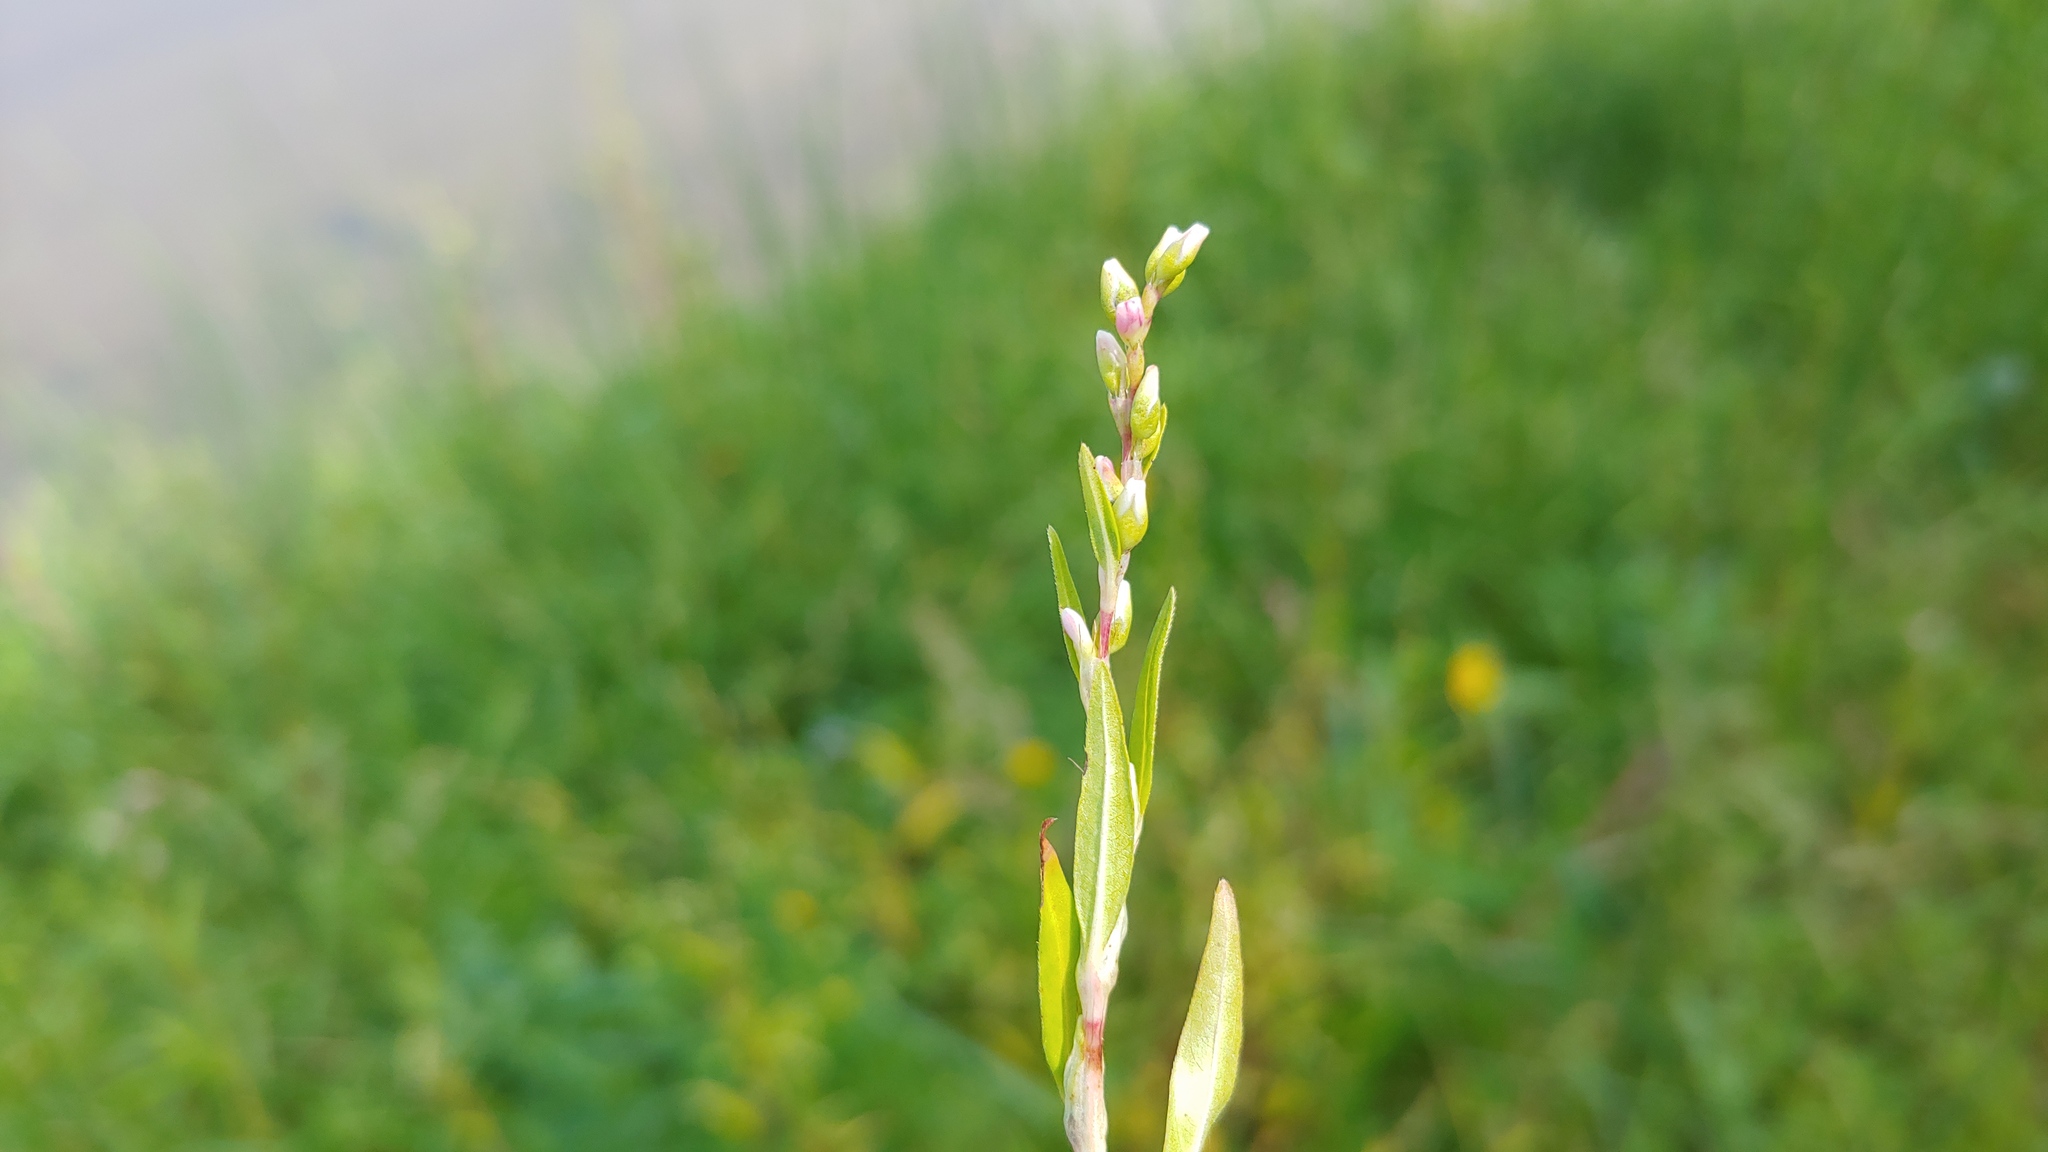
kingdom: Plantae
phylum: Tracheophyta
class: Magnoliopsida
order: Caryophyllales
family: Polygonaceae
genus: Persicaria
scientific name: Persicaria hydropiper
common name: Water-pepper
